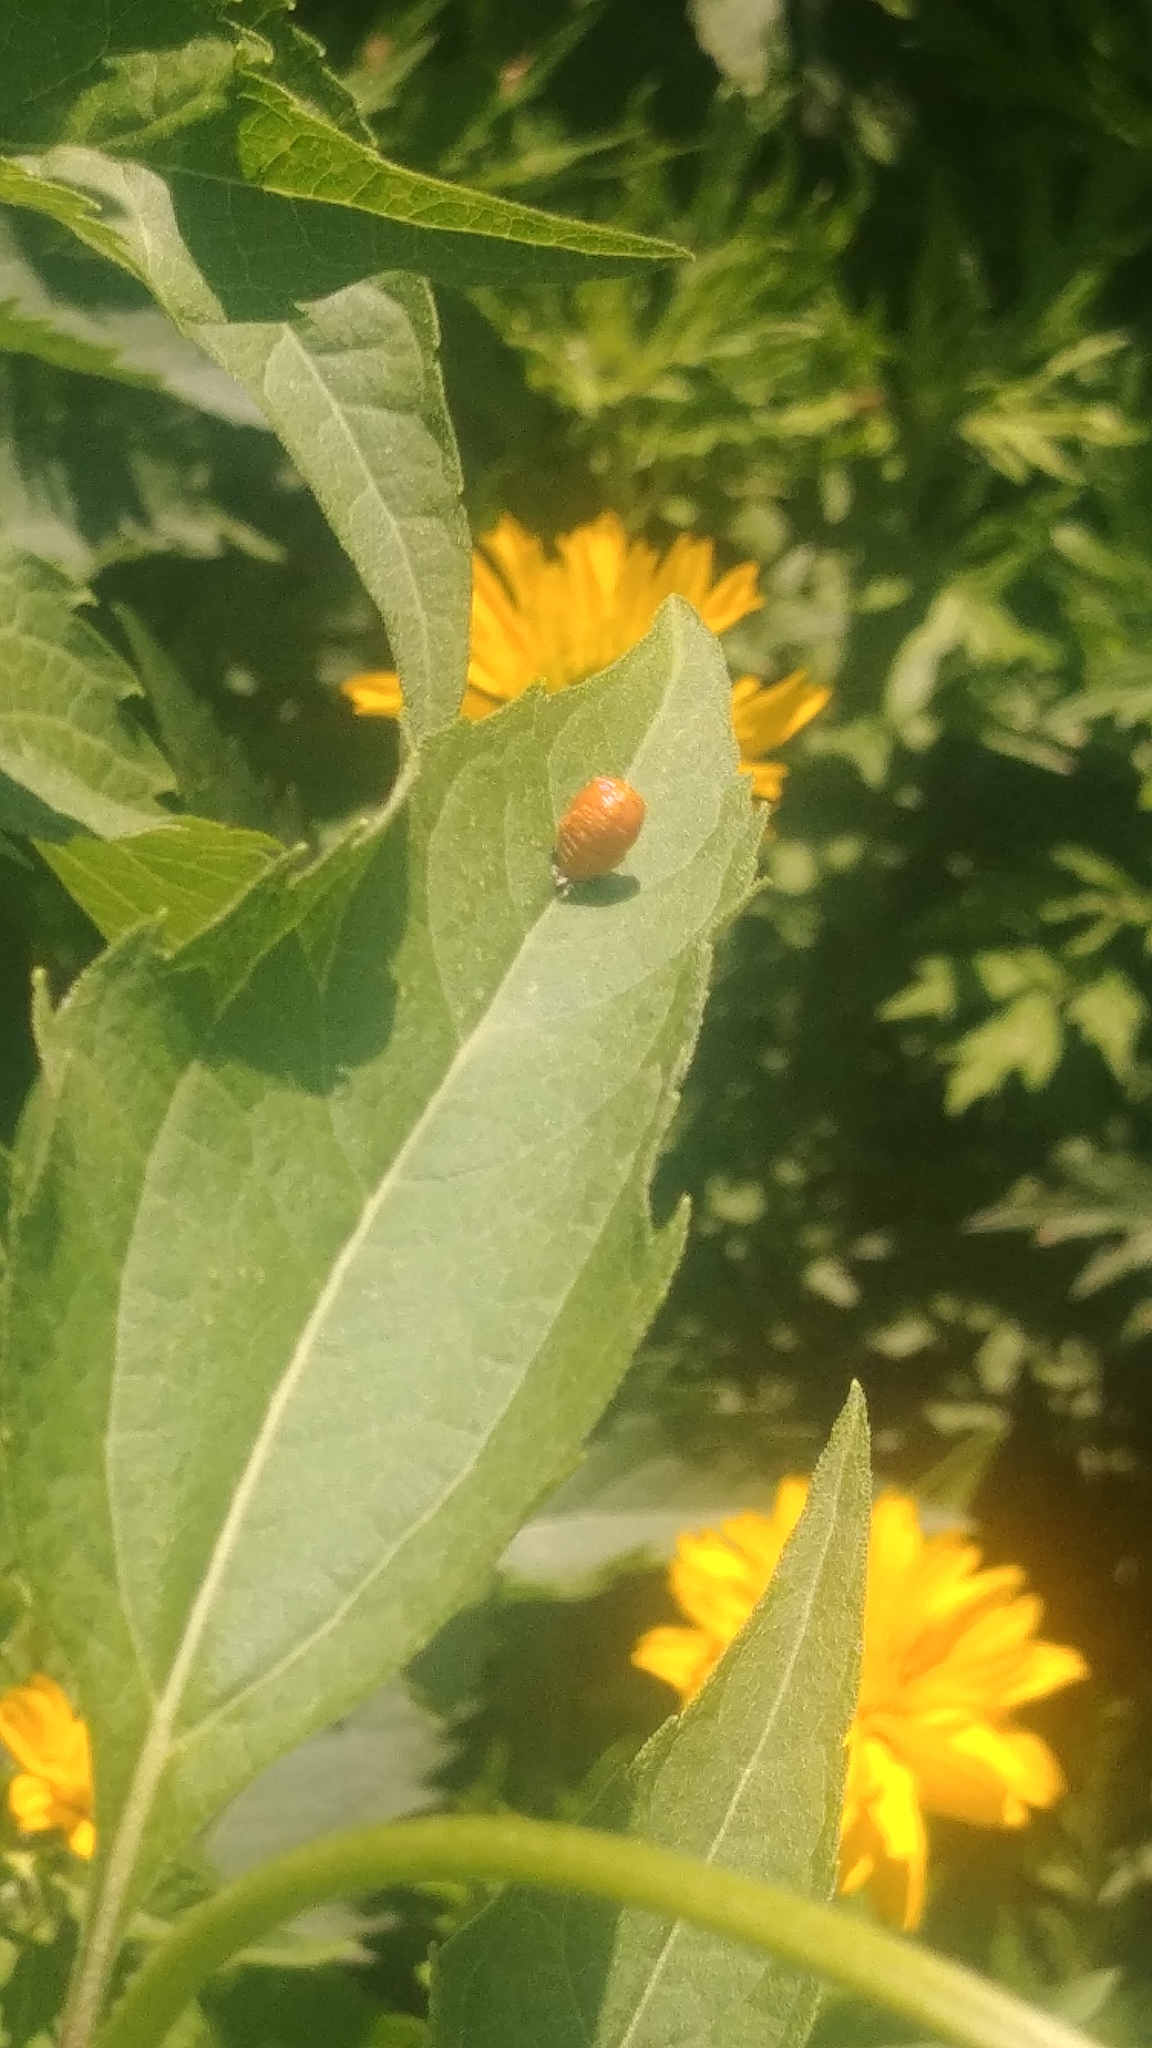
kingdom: Animalia
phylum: Arthropoda
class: Insecta
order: Coleoptera
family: Coccinellidae
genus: Harmonia
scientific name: Harmonia axyridis
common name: Harlequin ladybird
